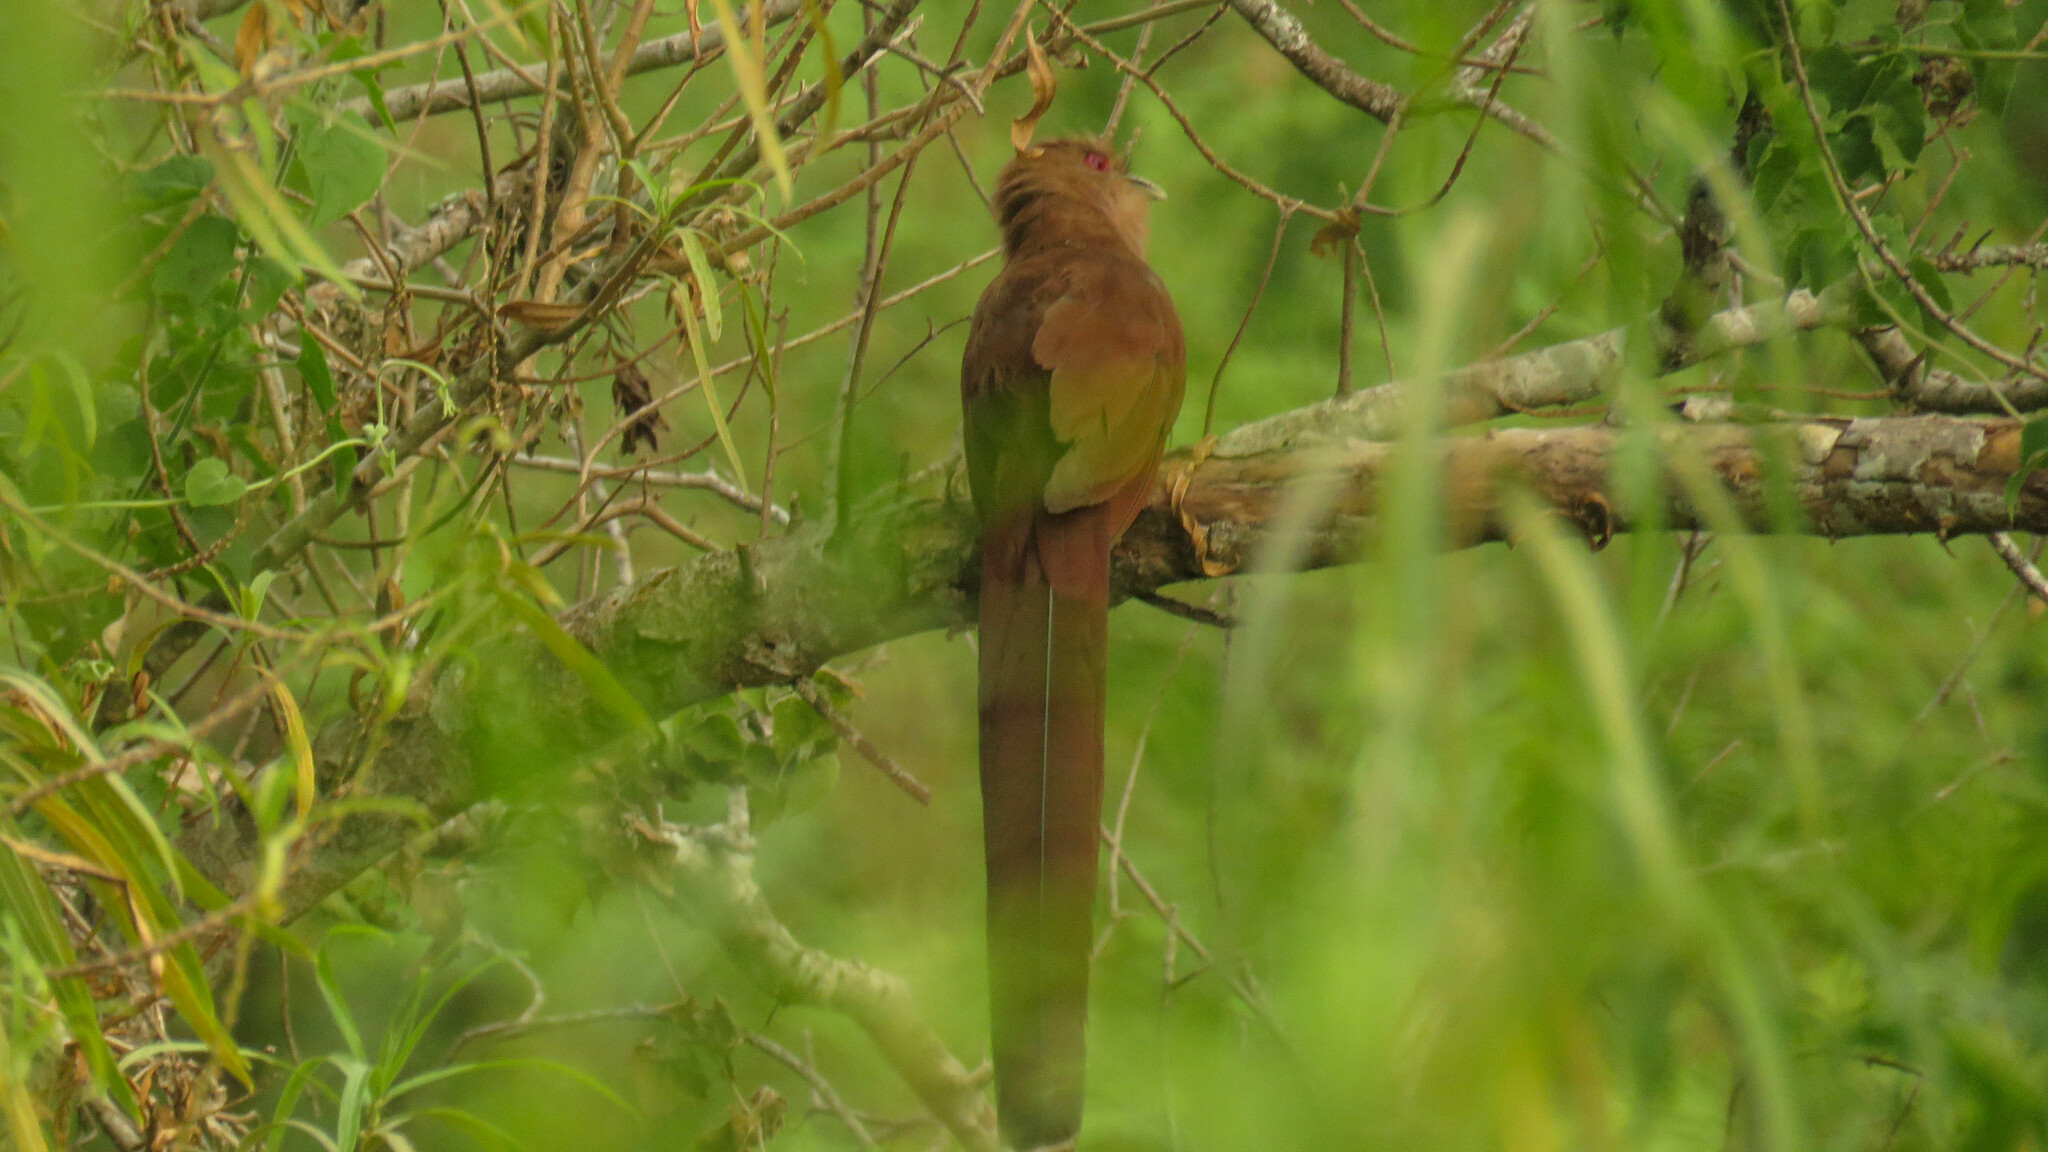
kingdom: Animalia
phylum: Chordata
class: Aves
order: Cuculiformes
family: Cuculidae
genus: Piaya
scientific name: Piaya cayana
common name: Squirrel cuckoo
